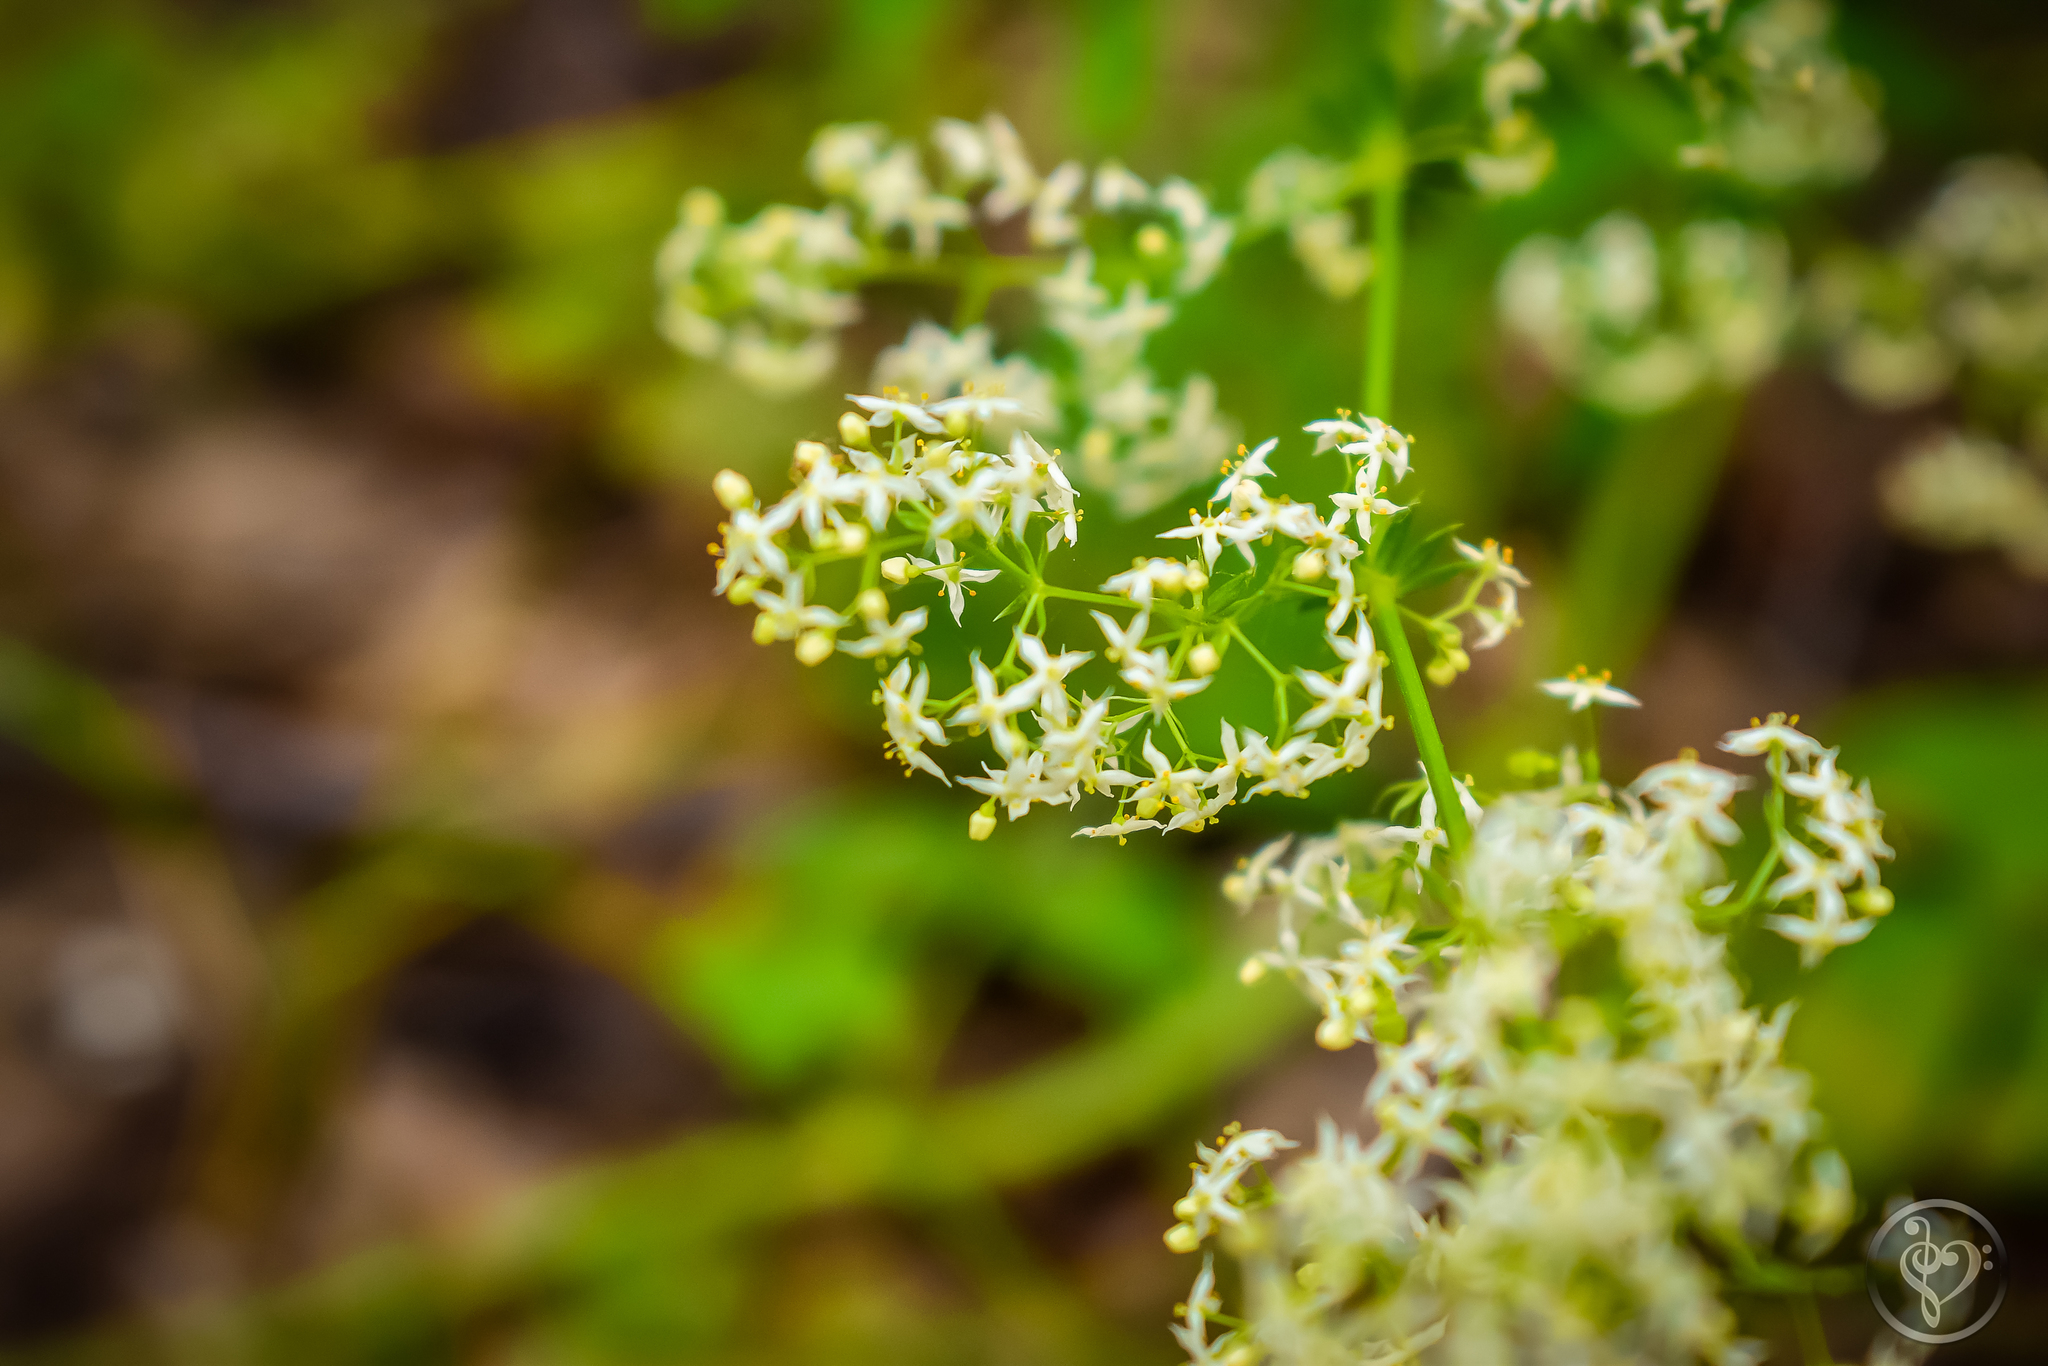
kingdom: Plantae
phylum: Tracheophyta
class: Magnoliopsida
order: Gentianales
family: Rubiaceae
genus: Galium
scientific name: Galium mollugo
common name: Hedge bedstraw
